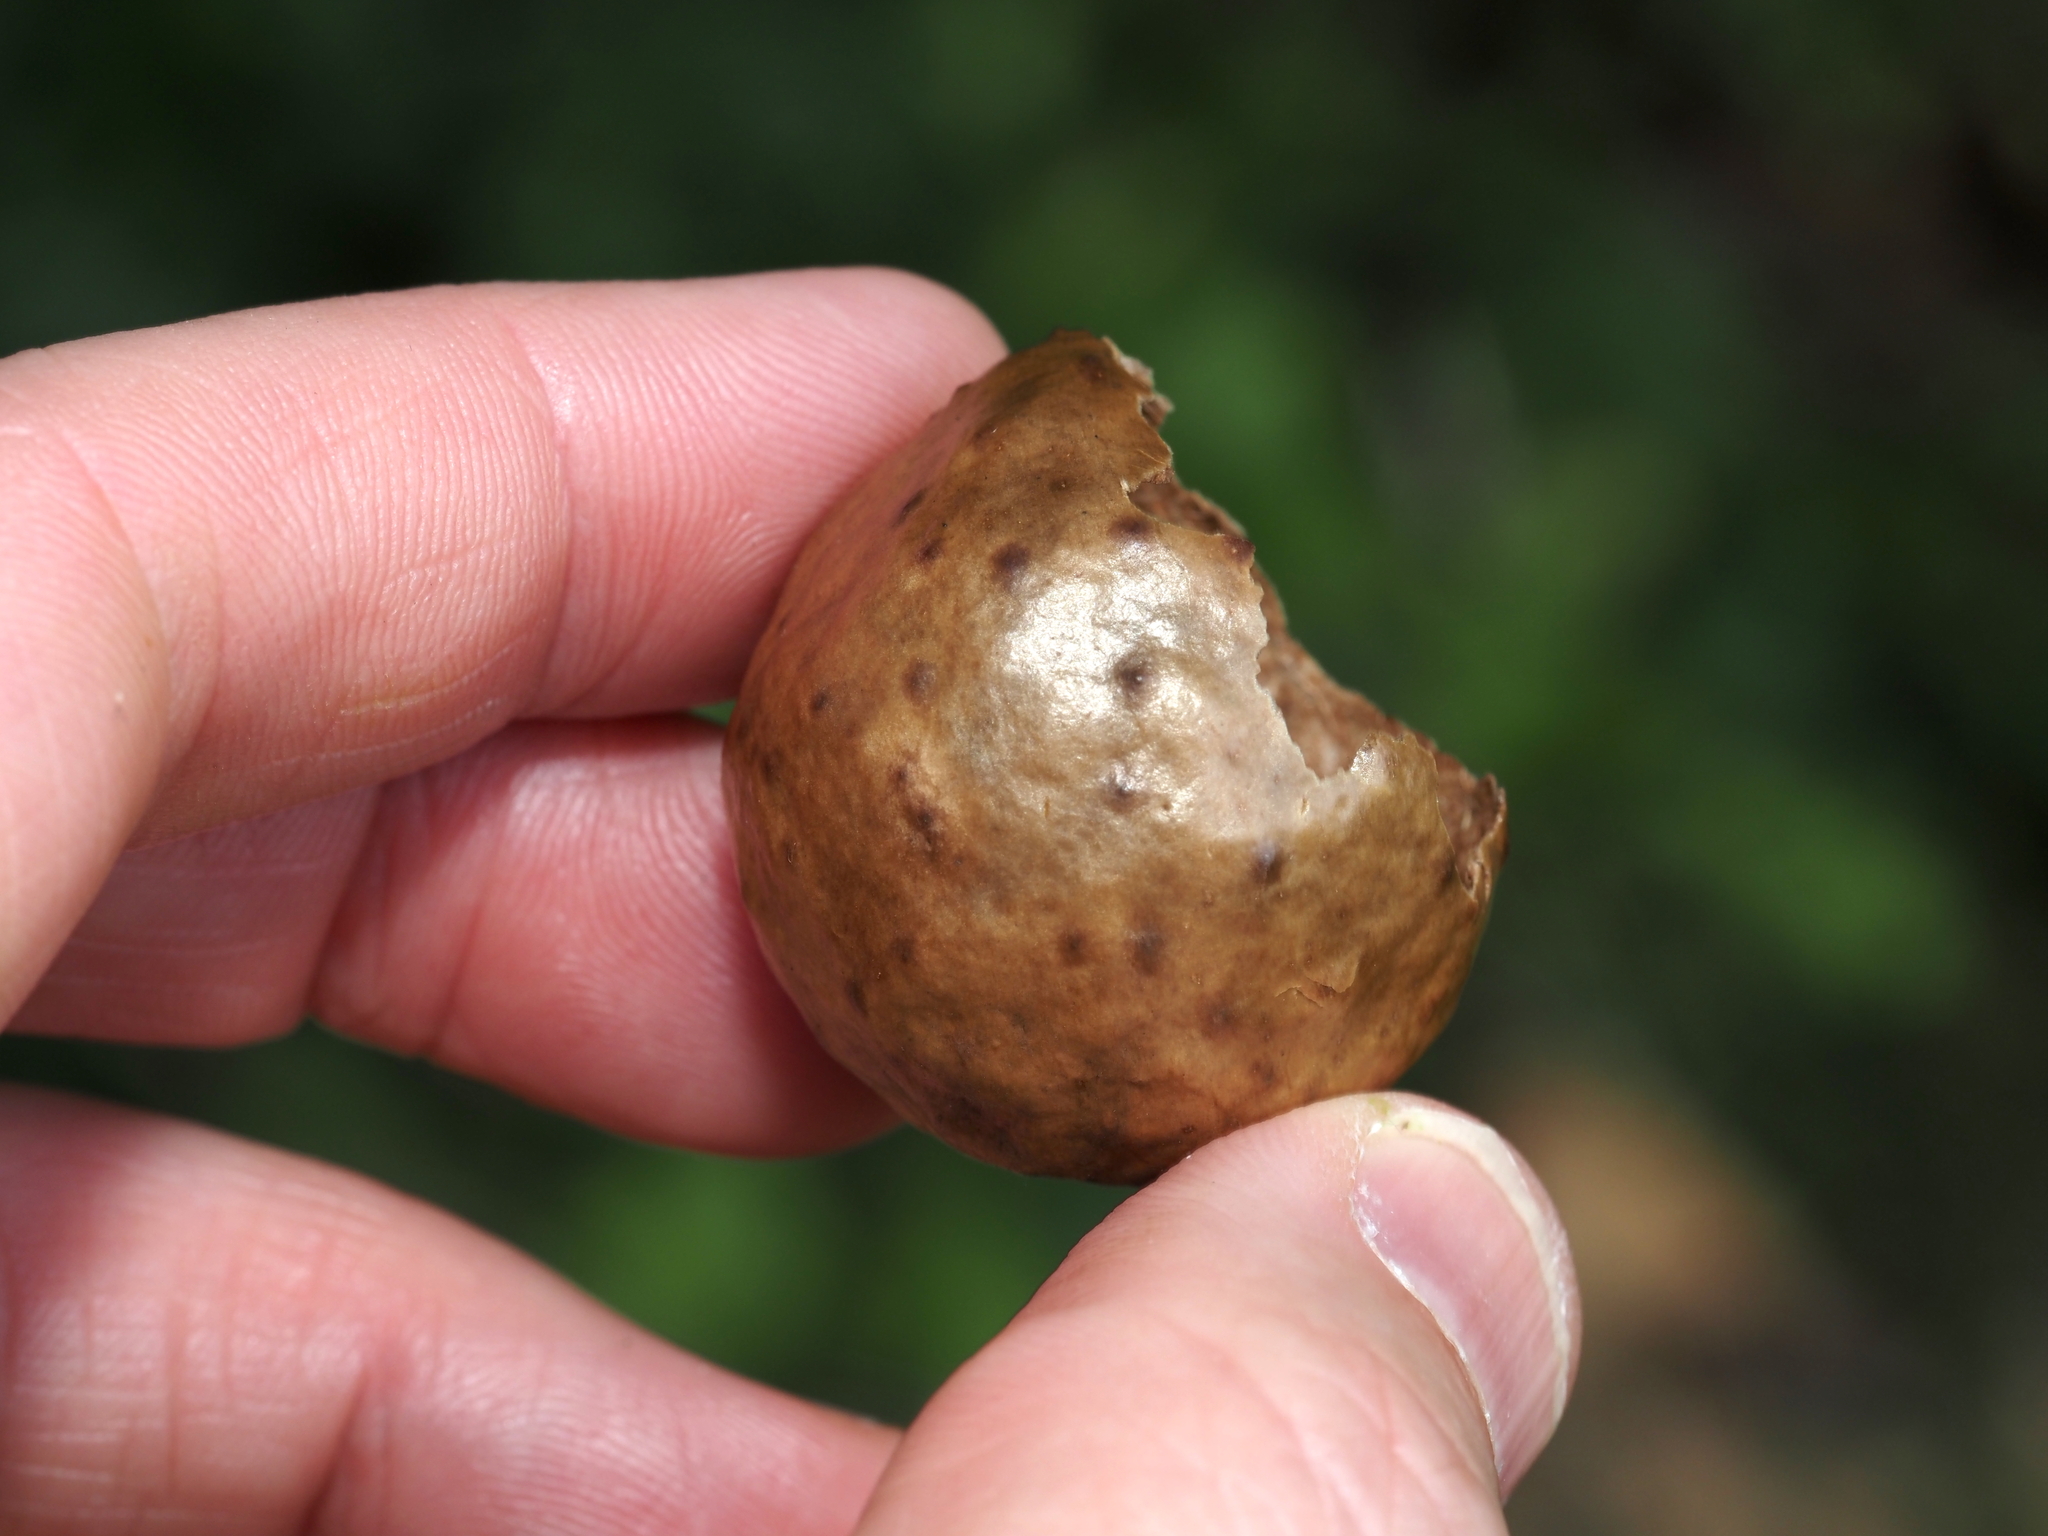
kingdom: Animalia
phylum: Arthropoda
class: Insecta
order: Hymenoptera
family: Cynipidae
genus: Amphibolips
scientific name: Amphibolips
